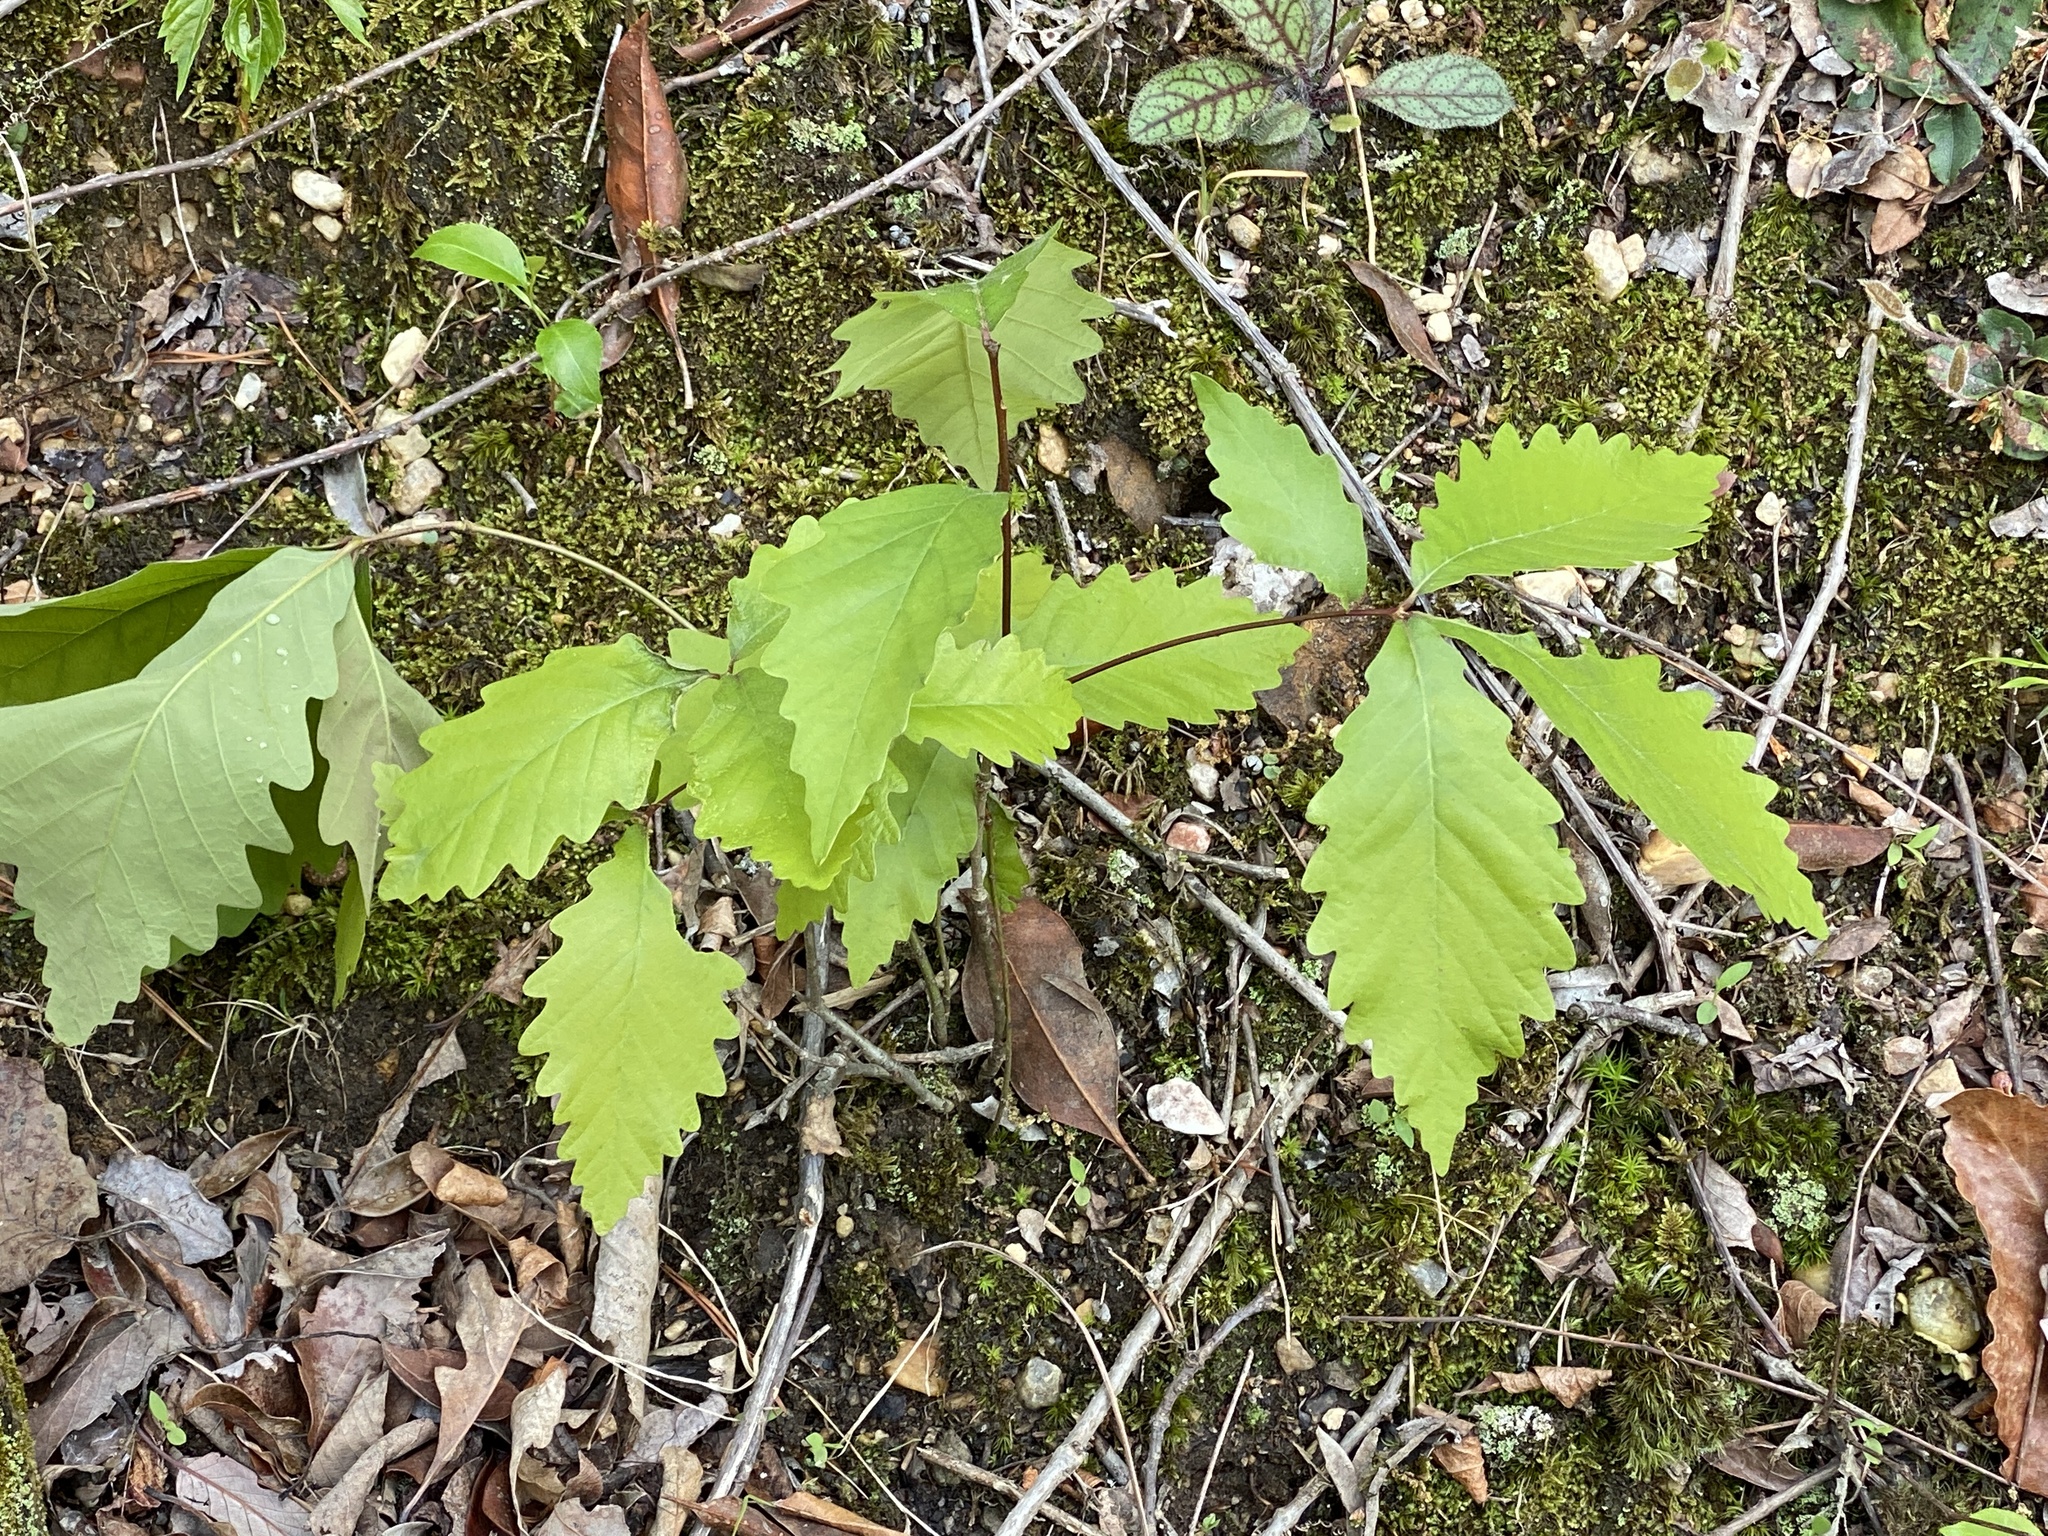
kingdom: Plantae
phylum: Tracheophyta
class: Magnoliopsida
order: Fagales
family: Fagaceae
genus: Quercus
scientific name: Quercus montana
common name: Chestnut oak
